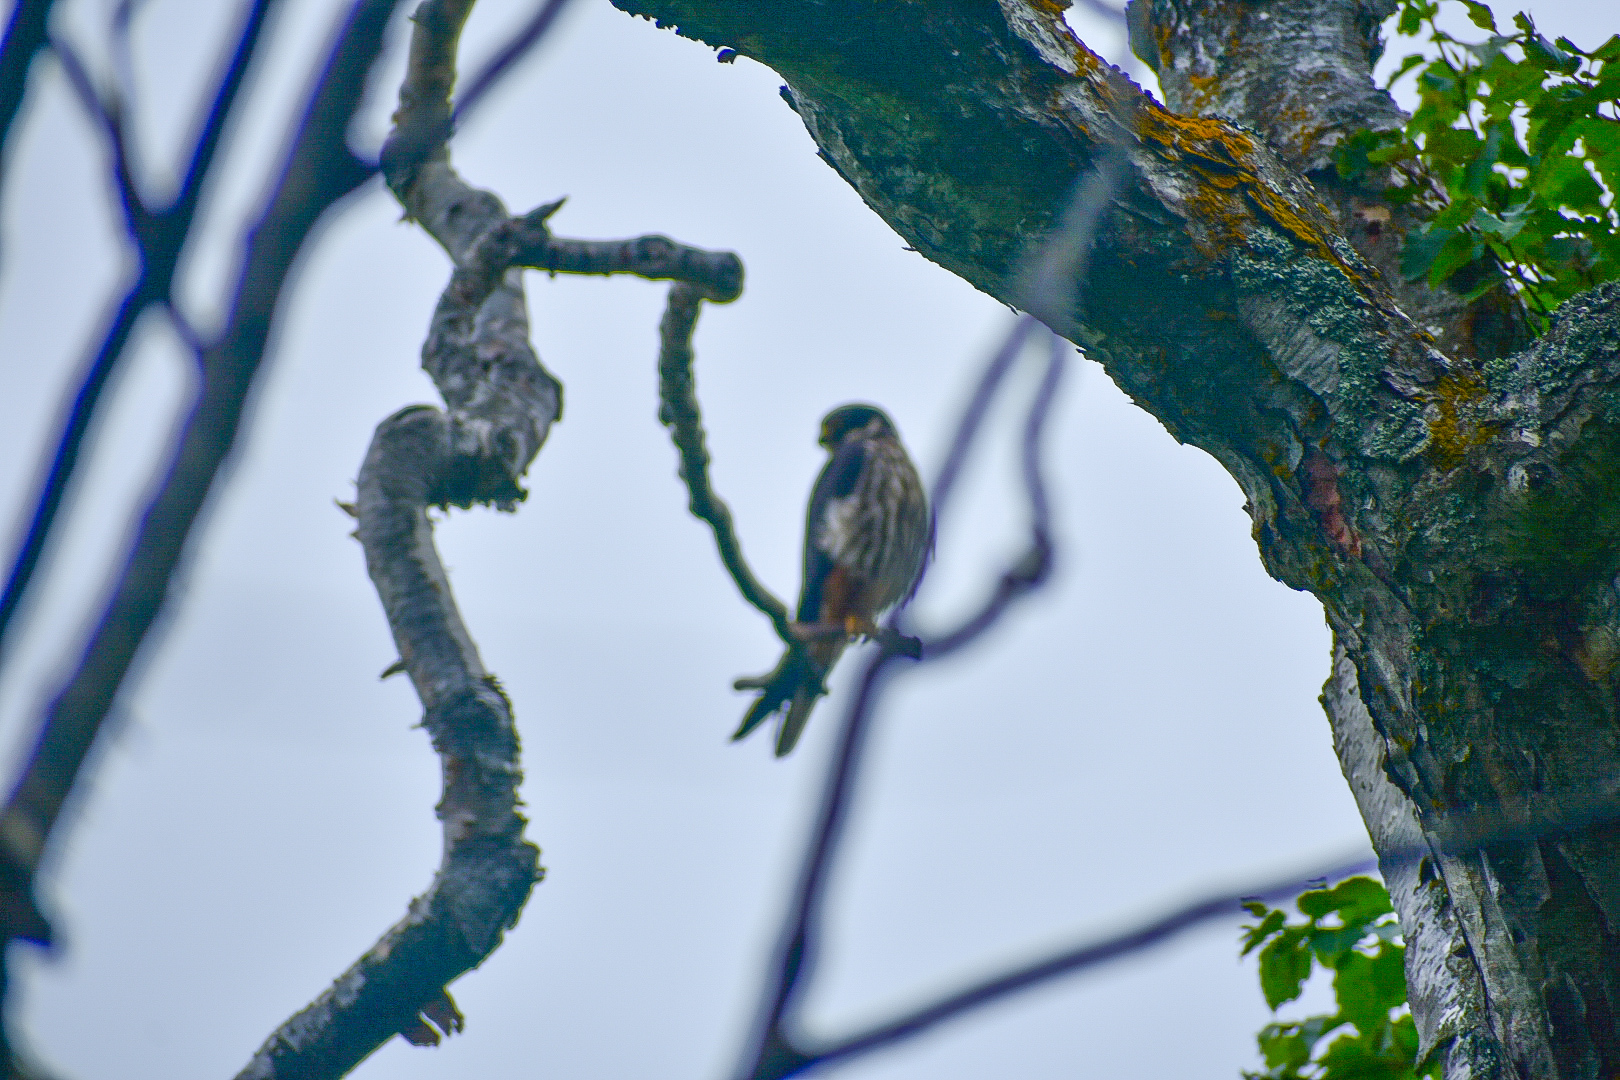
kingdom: Animalia
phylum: Chordata
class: Aves
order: Falconiformes
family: Falconidae
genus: Falco
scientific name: Falco subbuteo
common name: Eurasian hobby
